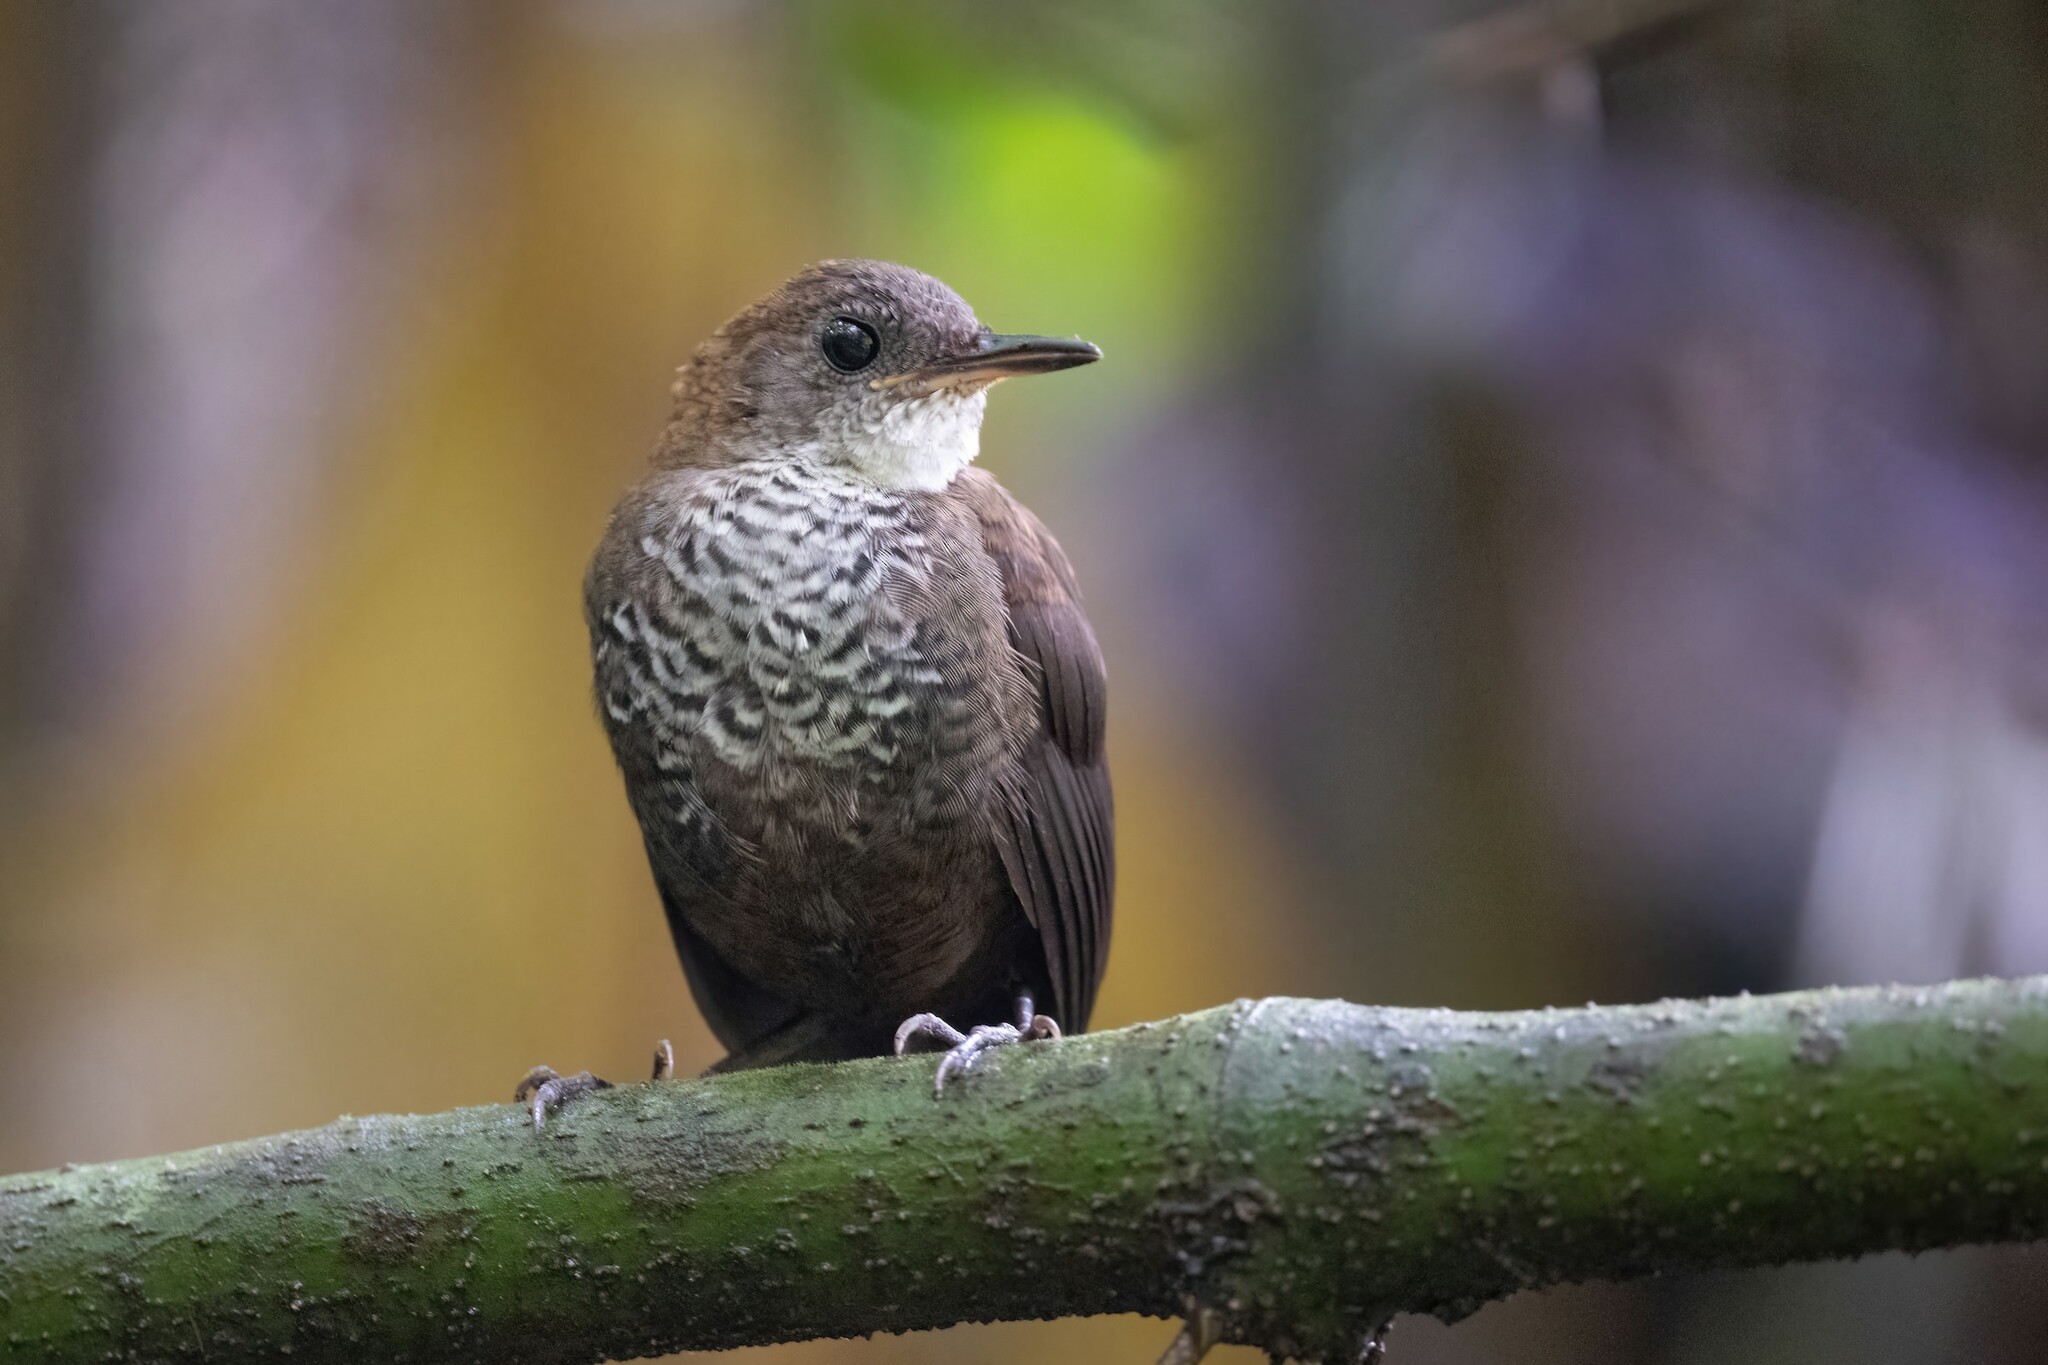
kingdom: Animalia
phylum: Chordata
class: Aves
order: Passeriformes
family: Troglodytidae
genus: Microcerculus
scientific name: Microcerculus marginatus
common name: Southern nightingale-wren
